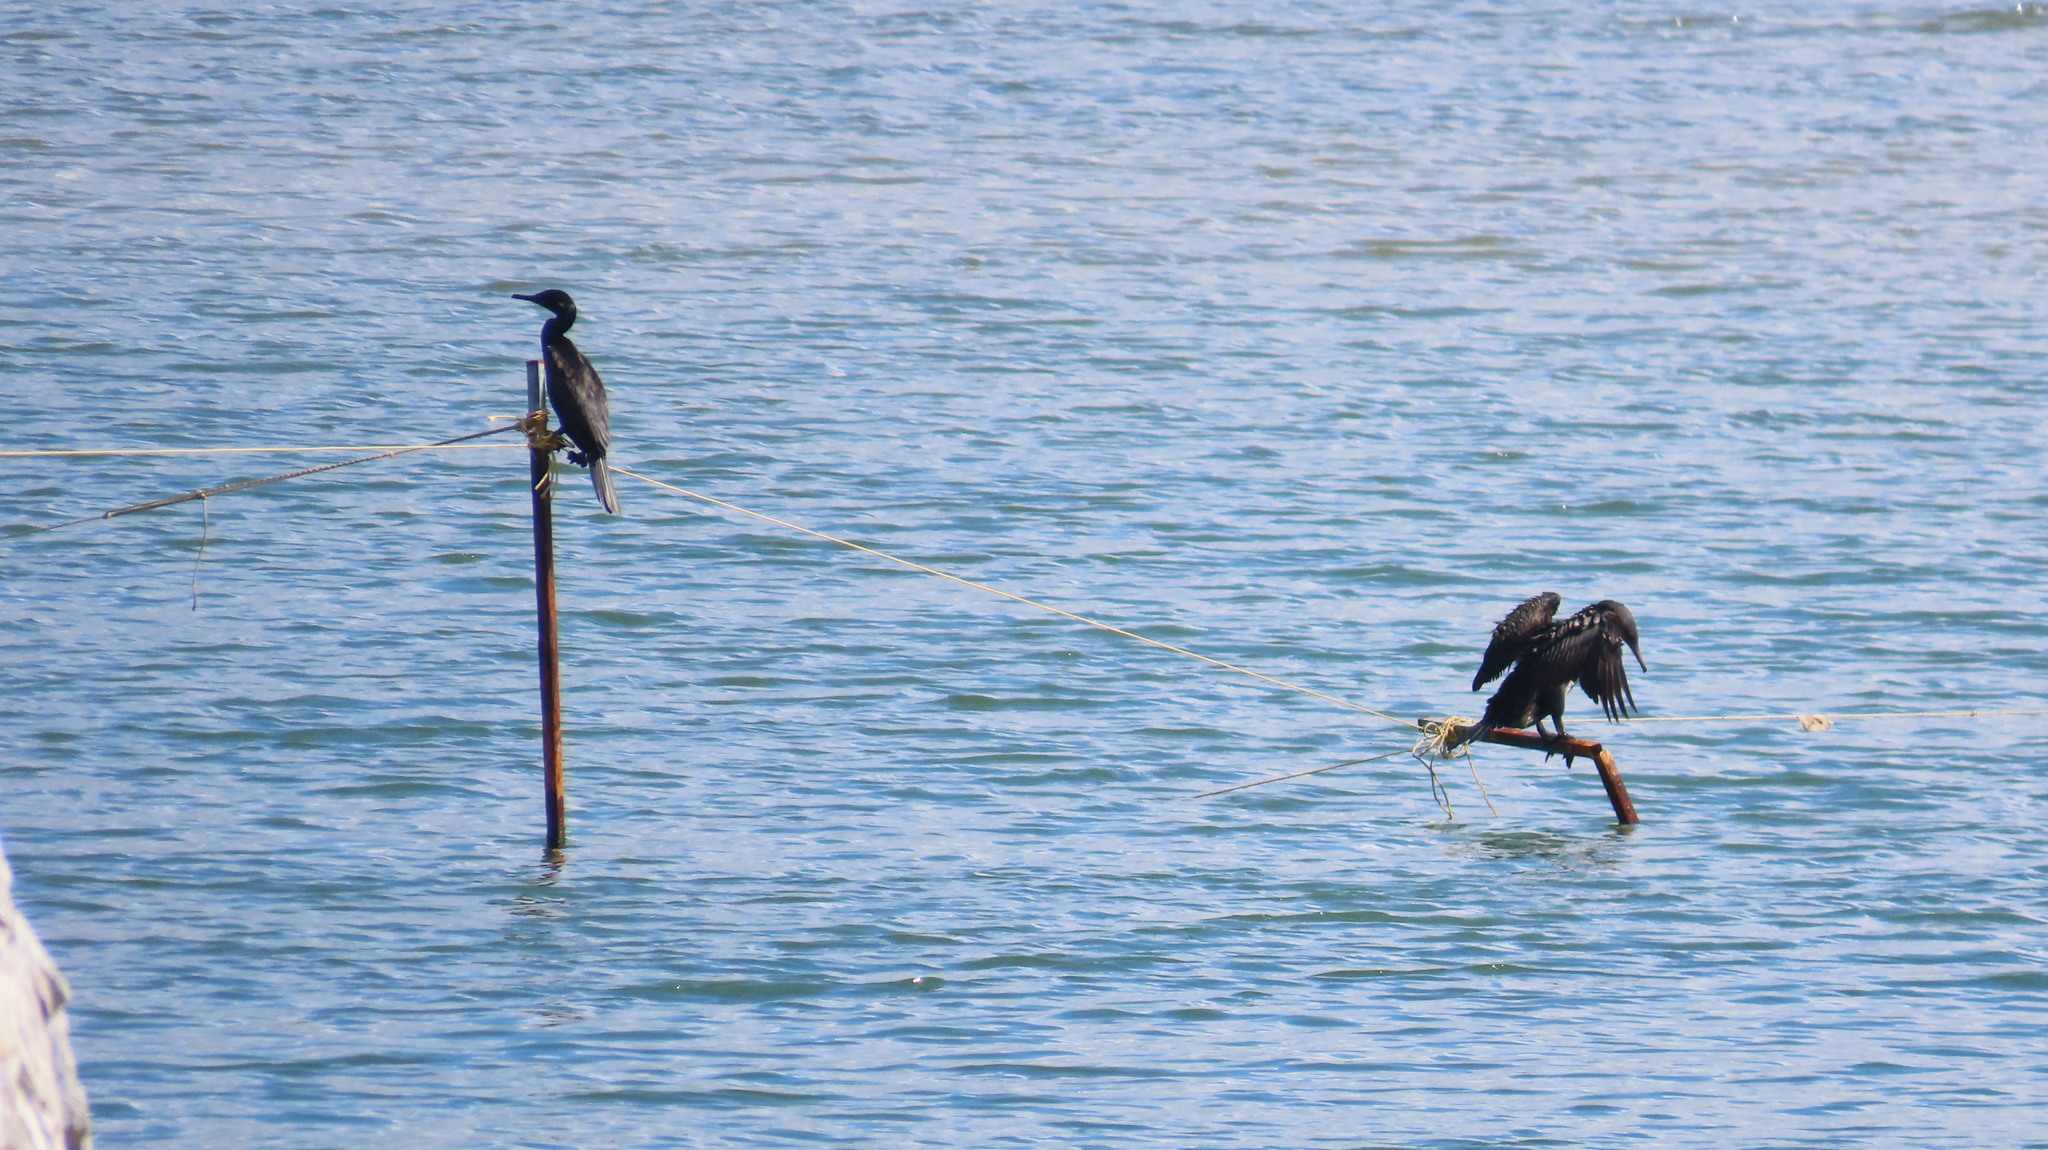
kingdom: Animalia
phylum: Chordata
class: Aves
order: Suliformes
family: Phalacrocoracidae
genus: Phalacrocorax
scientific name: Phalacrocorax fuscicollis
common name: Indian cormorant
